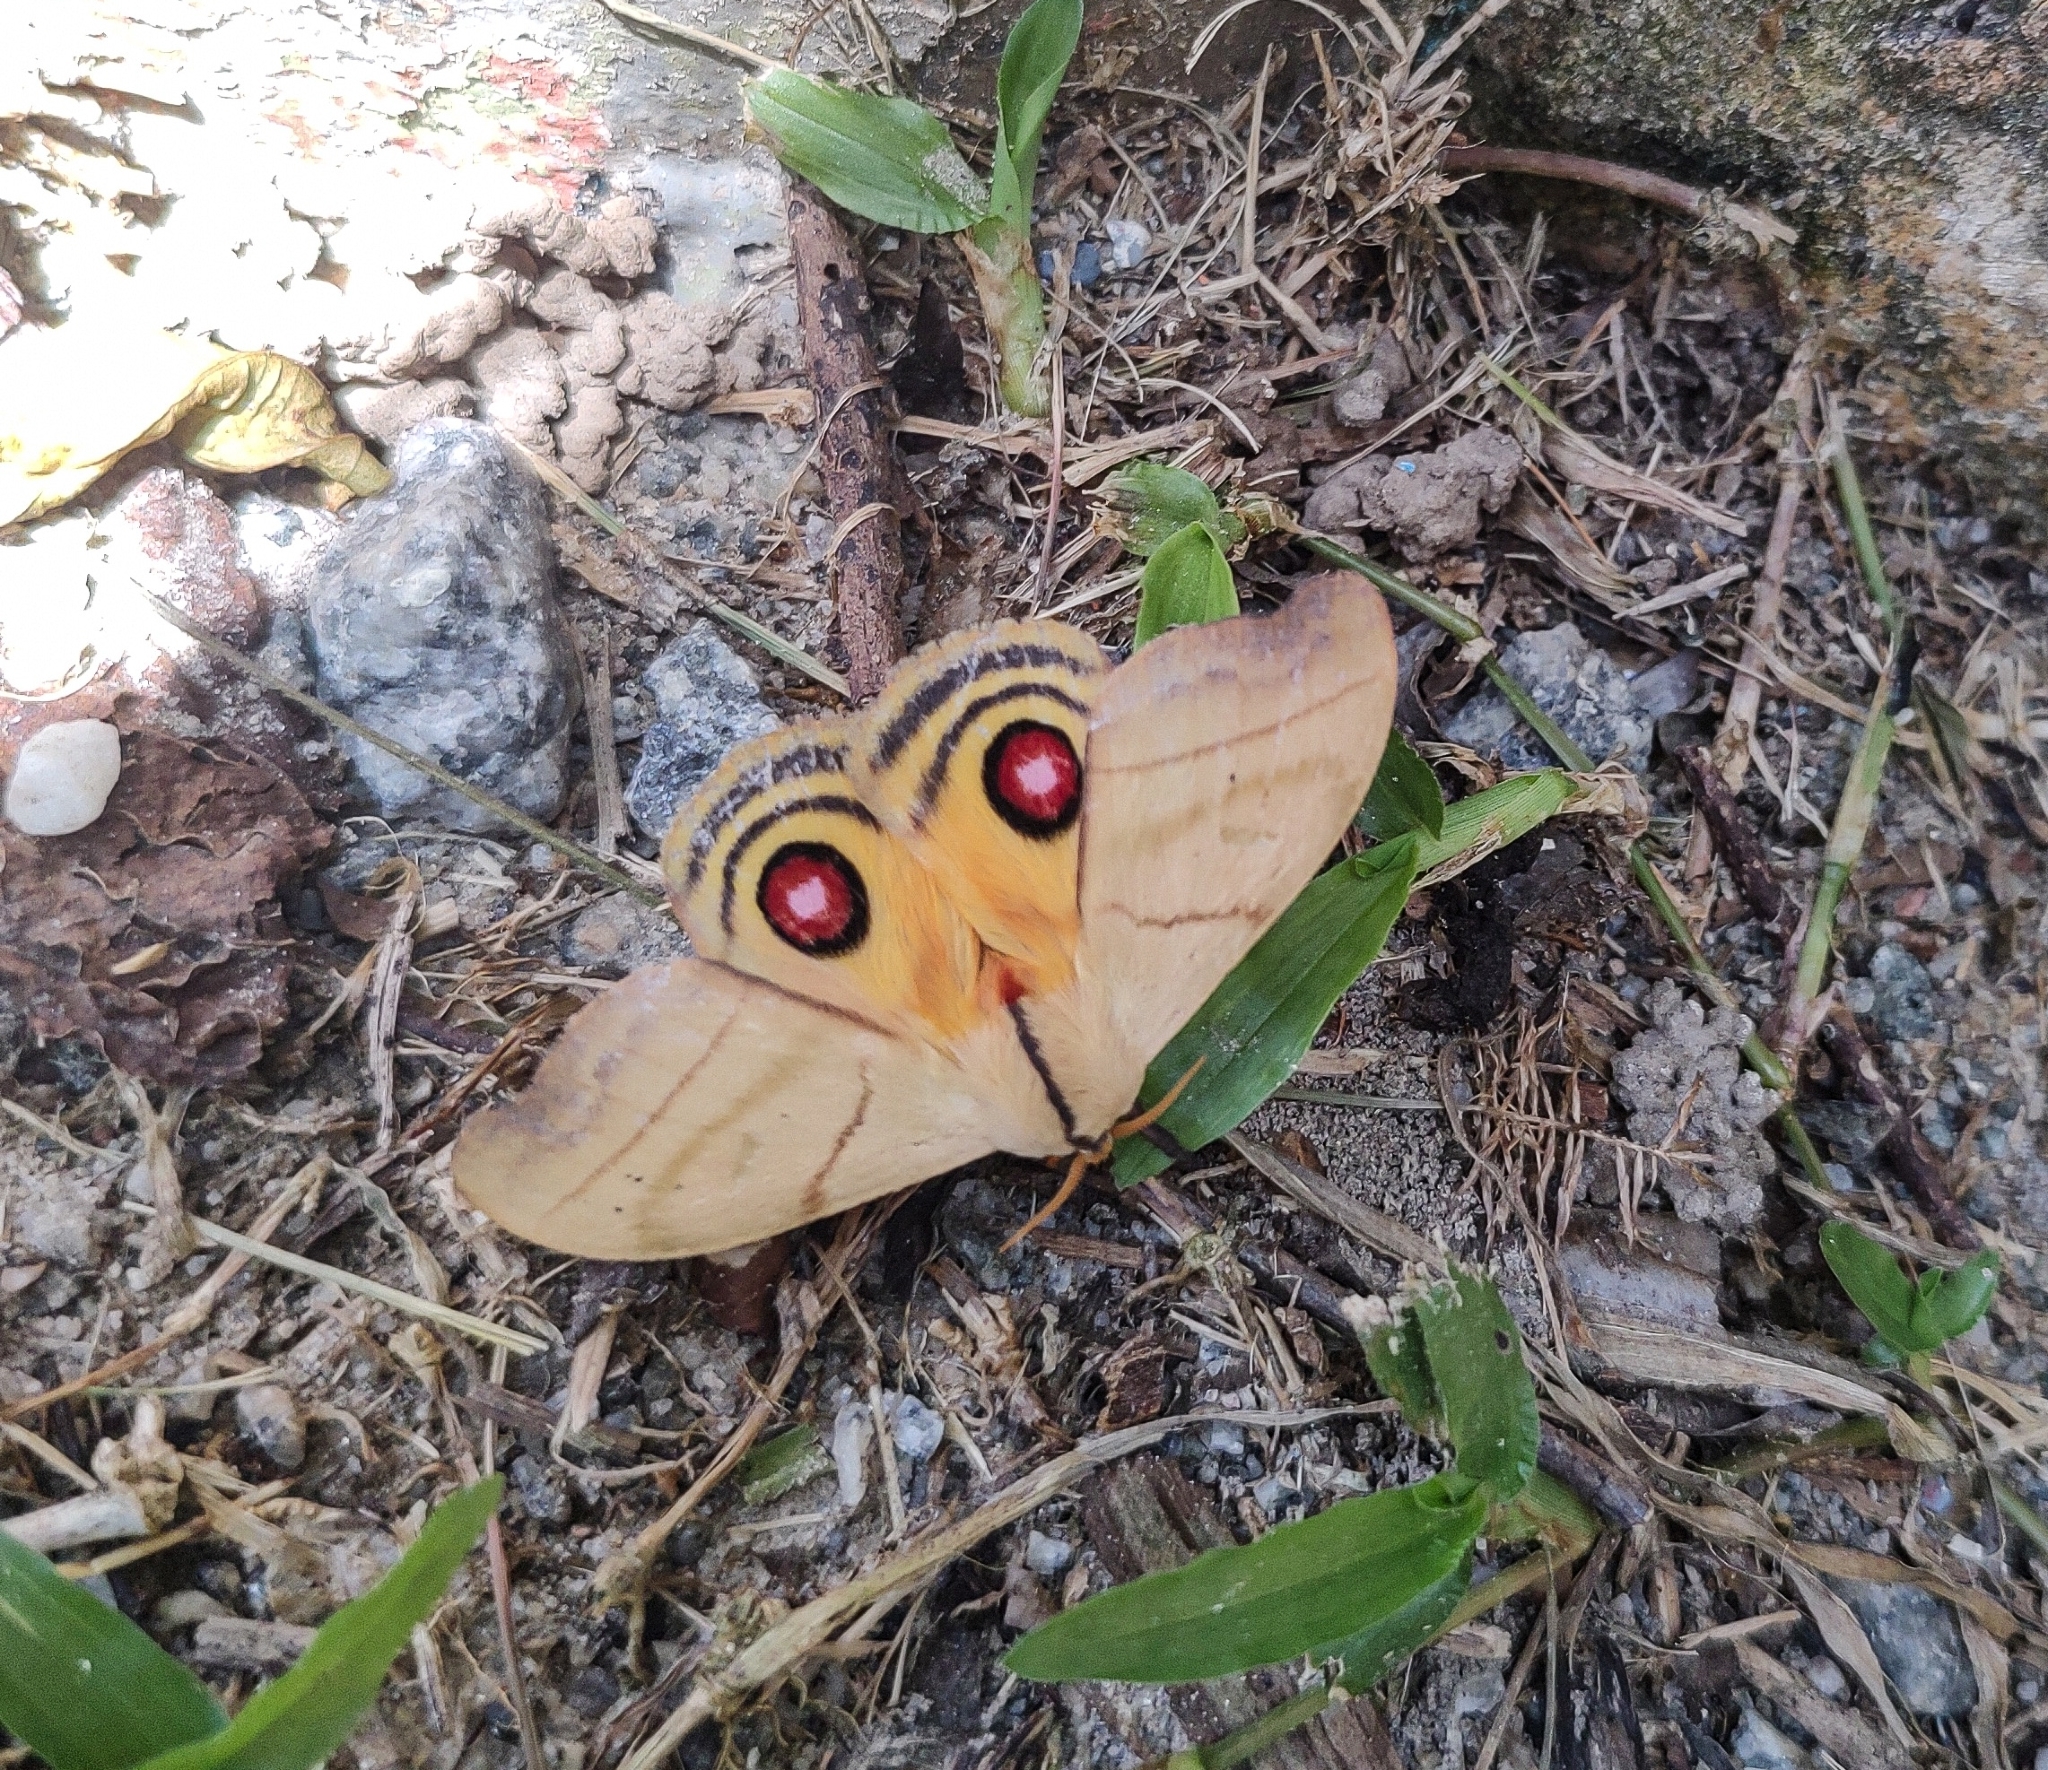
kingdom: Animalia
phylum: Arthropoda
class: Insecta
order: Lepidoptera
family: Saturniidae
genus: Hyperchiria
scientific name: Hyperchiria incisa
